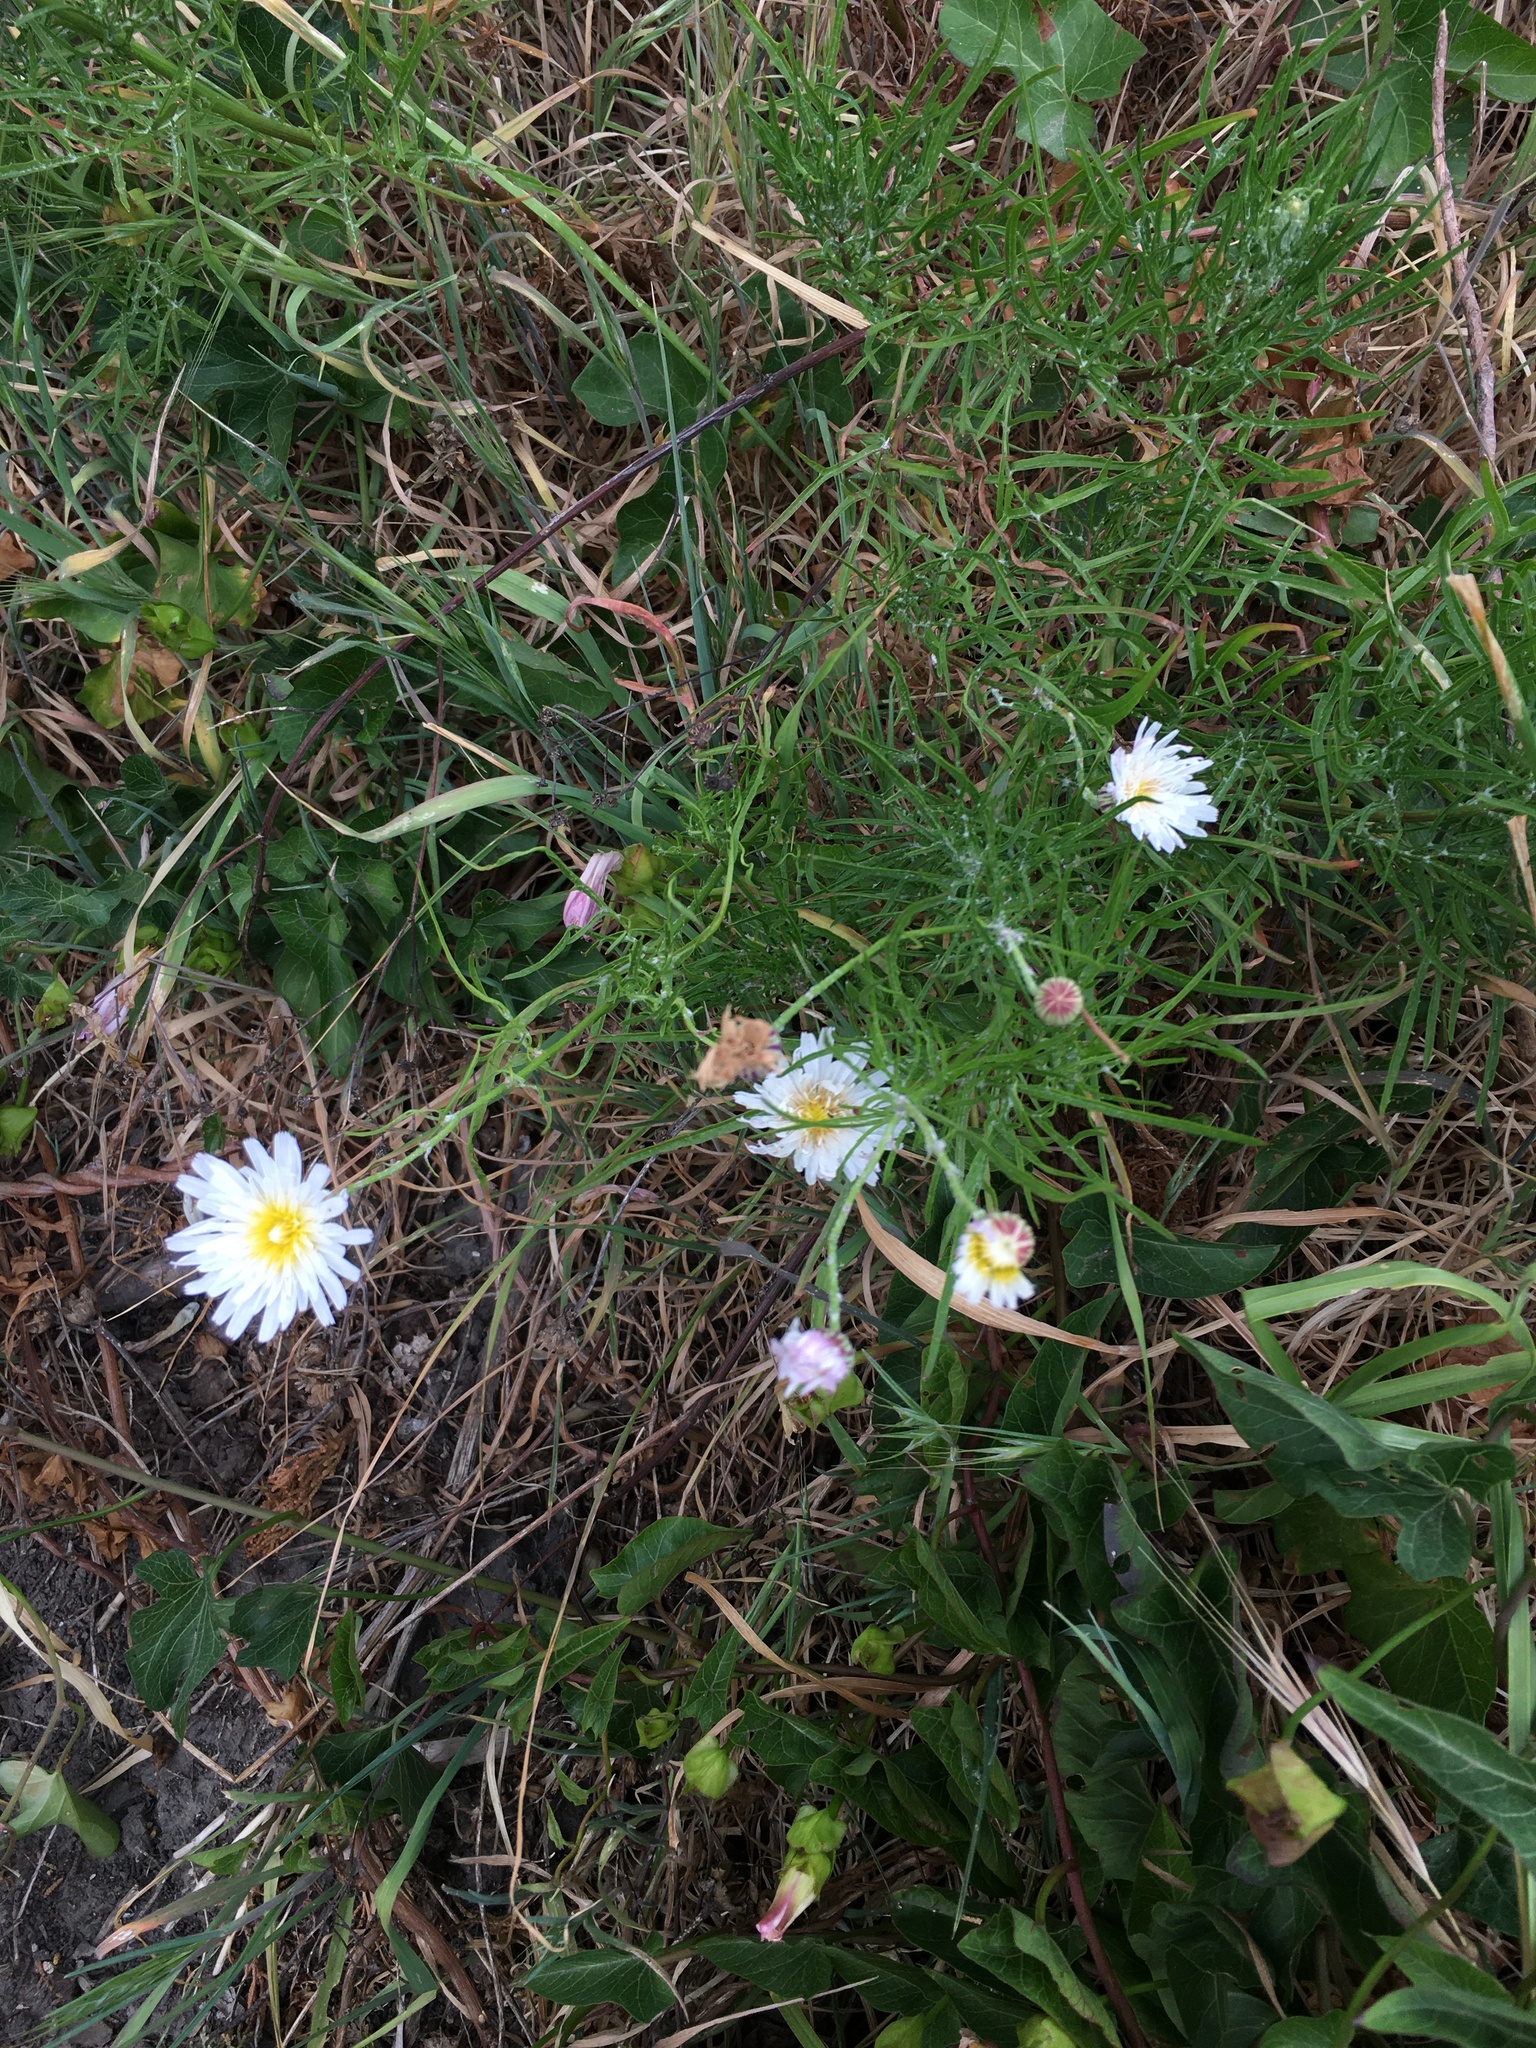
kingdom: Plantae
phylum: Tracheophyta
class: Magnoliopsida
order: Asterales
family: Asteraceae
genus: Malacothrix
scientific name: Malacothrix saxatilis
